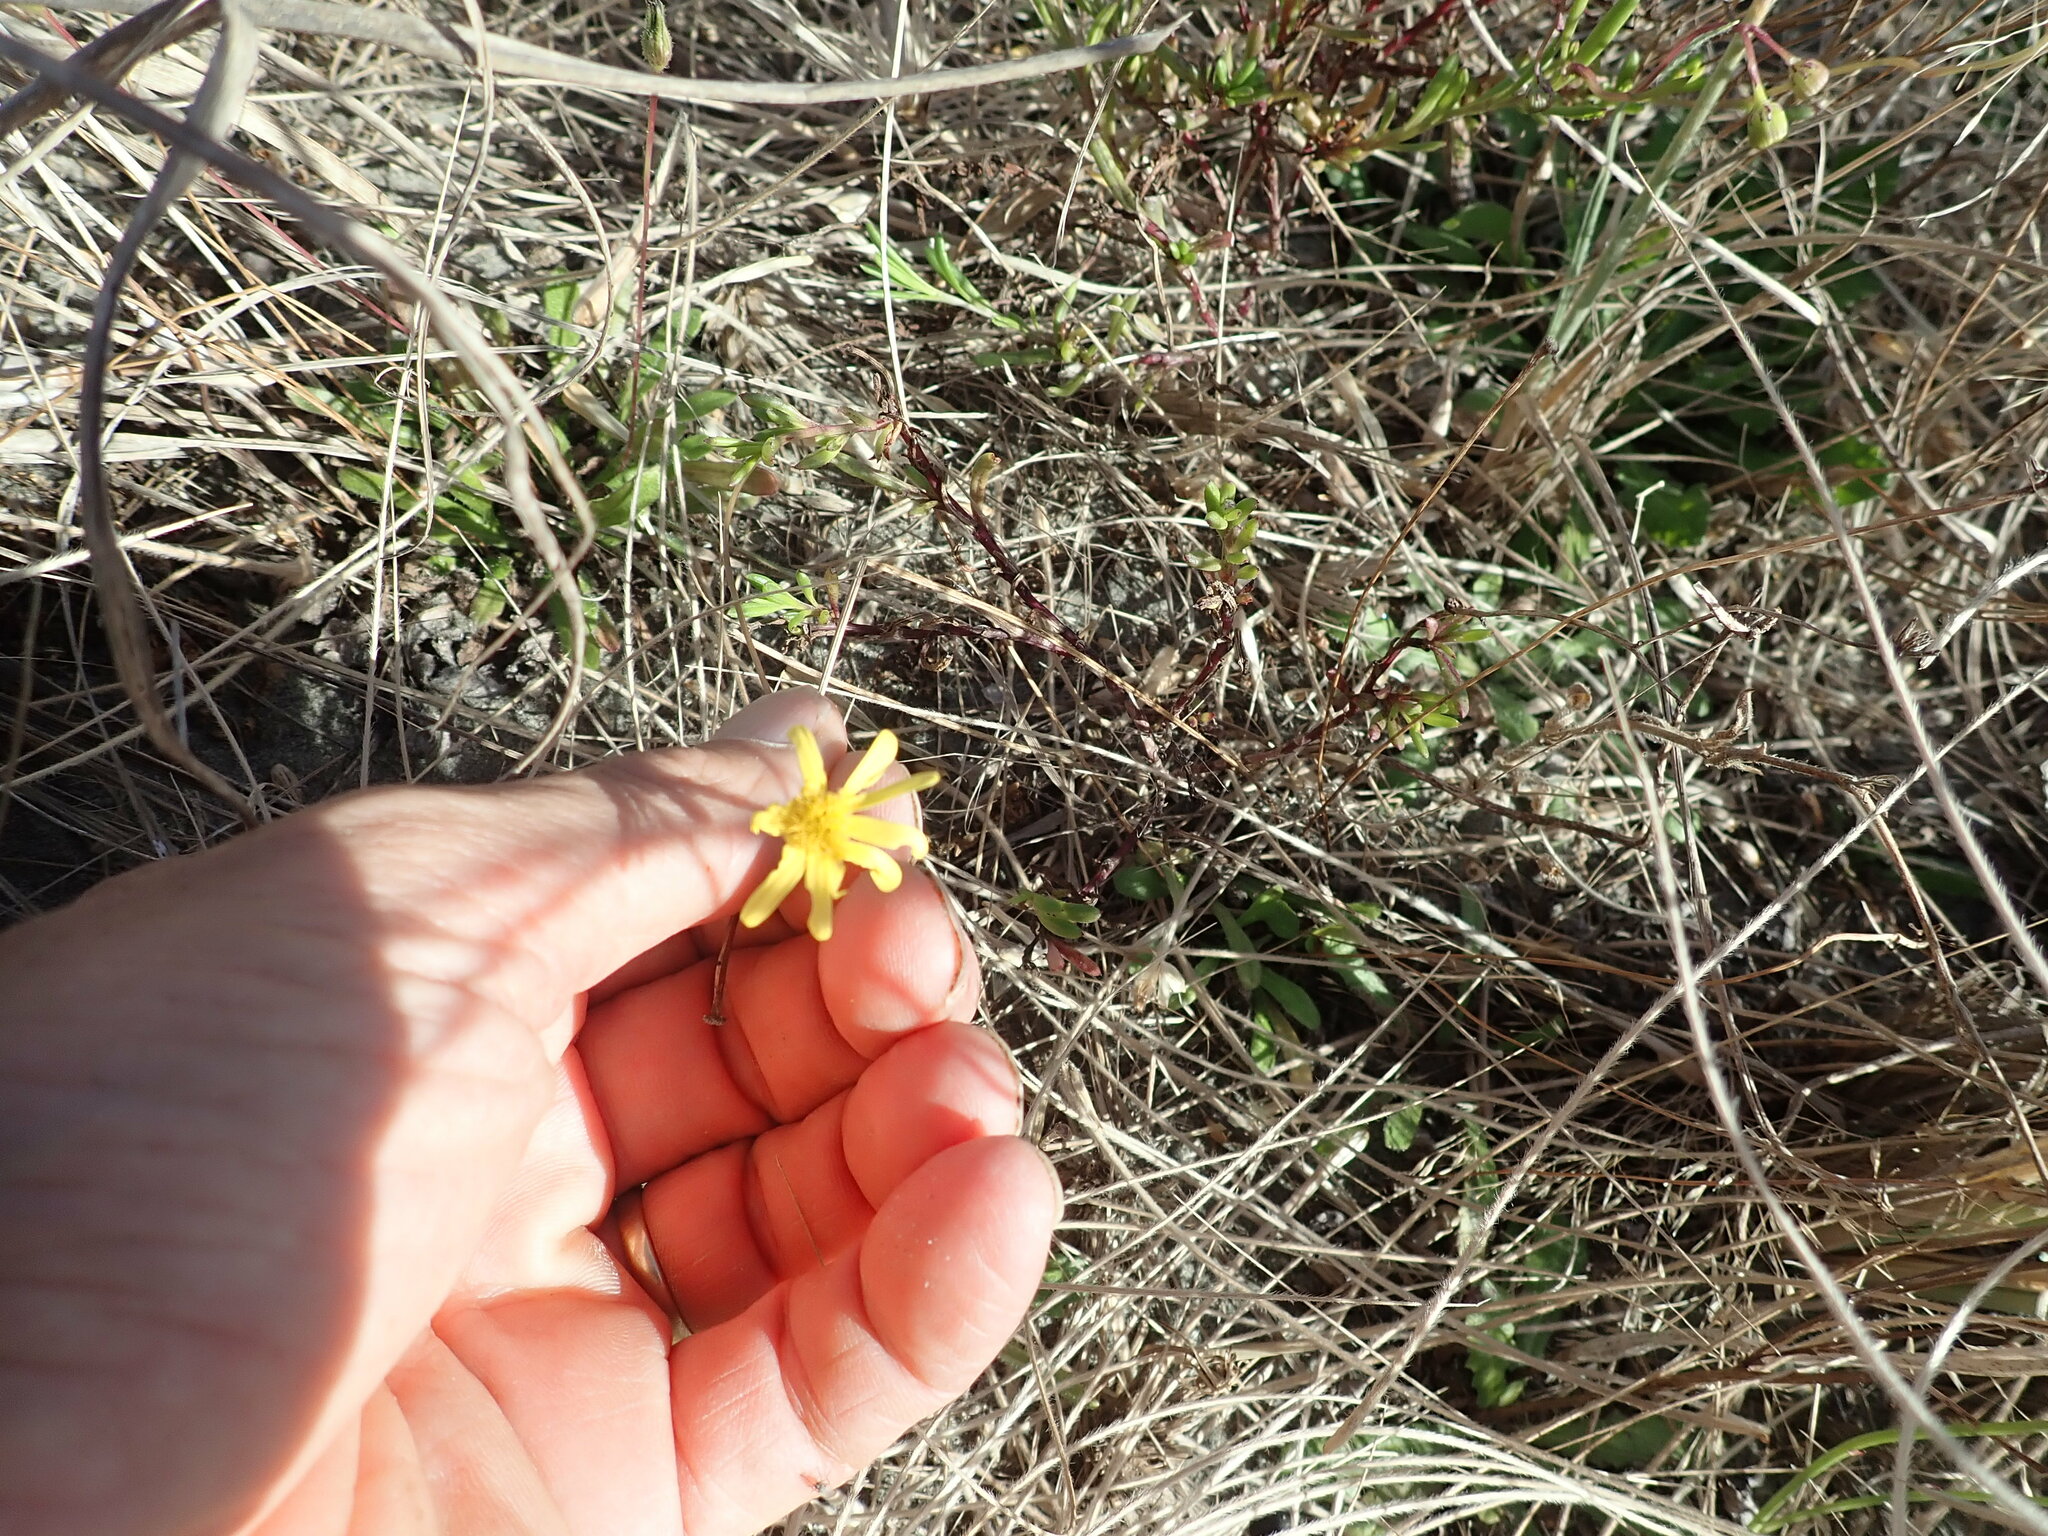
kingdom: Plantae
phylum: Tracheophyta
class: Magnoliopsida
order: Asterales
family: Asteraceae
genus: Senecio
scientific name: Senecio skirrhodon
